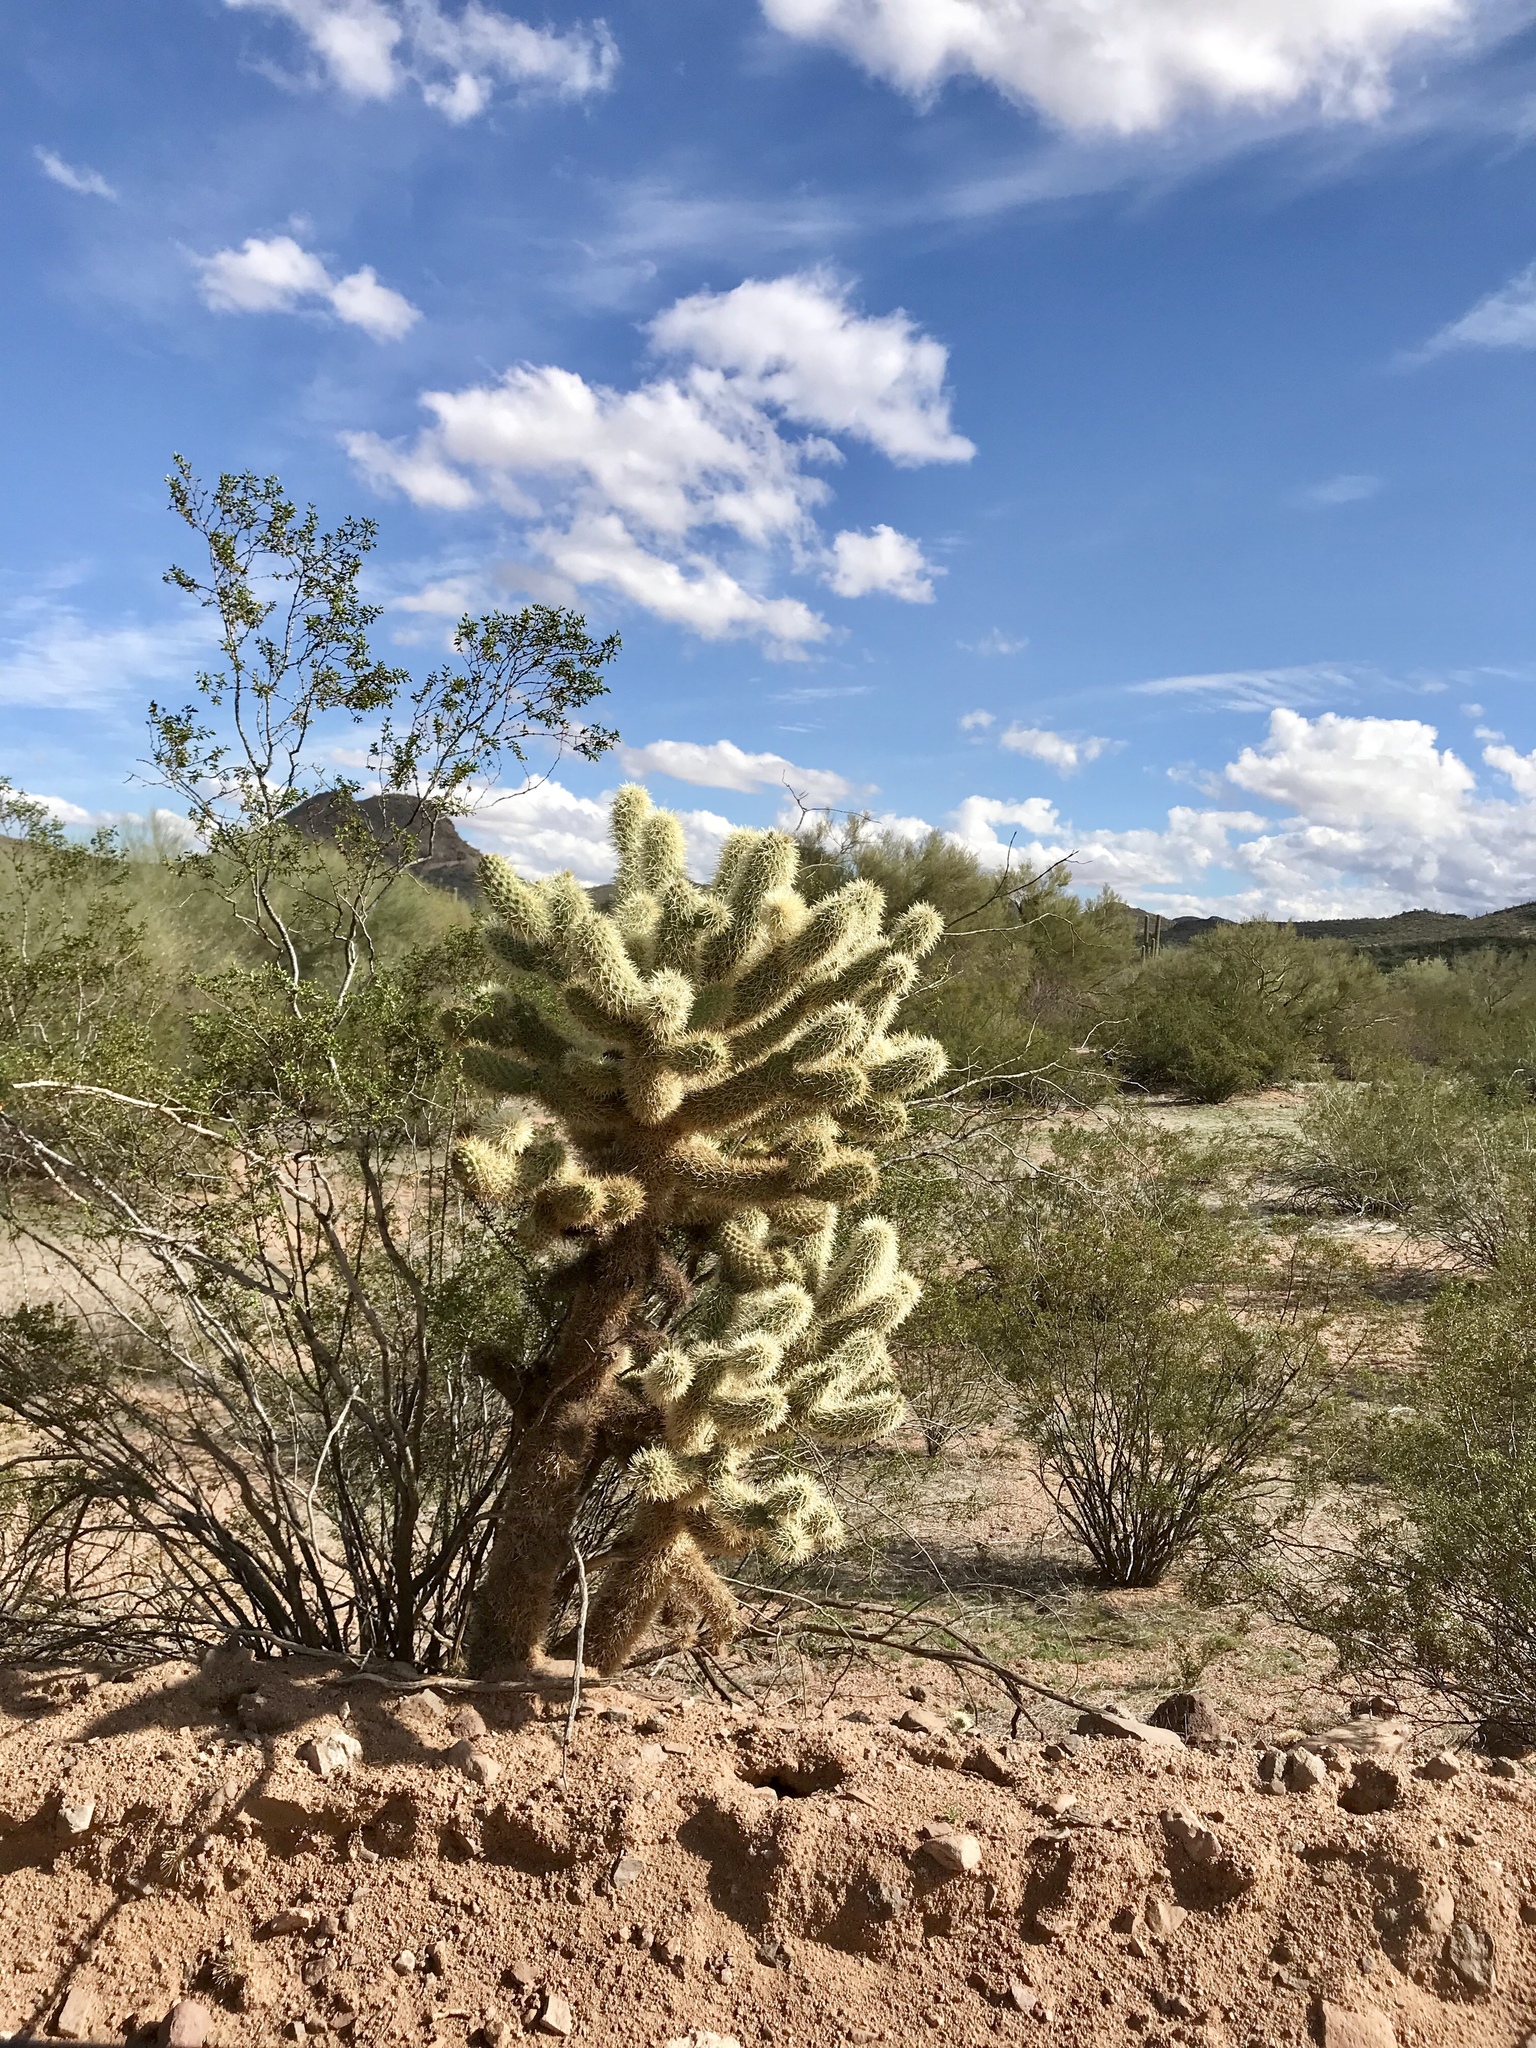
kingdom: Plantae
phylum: Tracheophyta
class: Magnoliopsida
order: Caryophyllales
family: Cactaceae
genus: Cylindropuntia
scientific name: Cylindropuntia fosbergii
